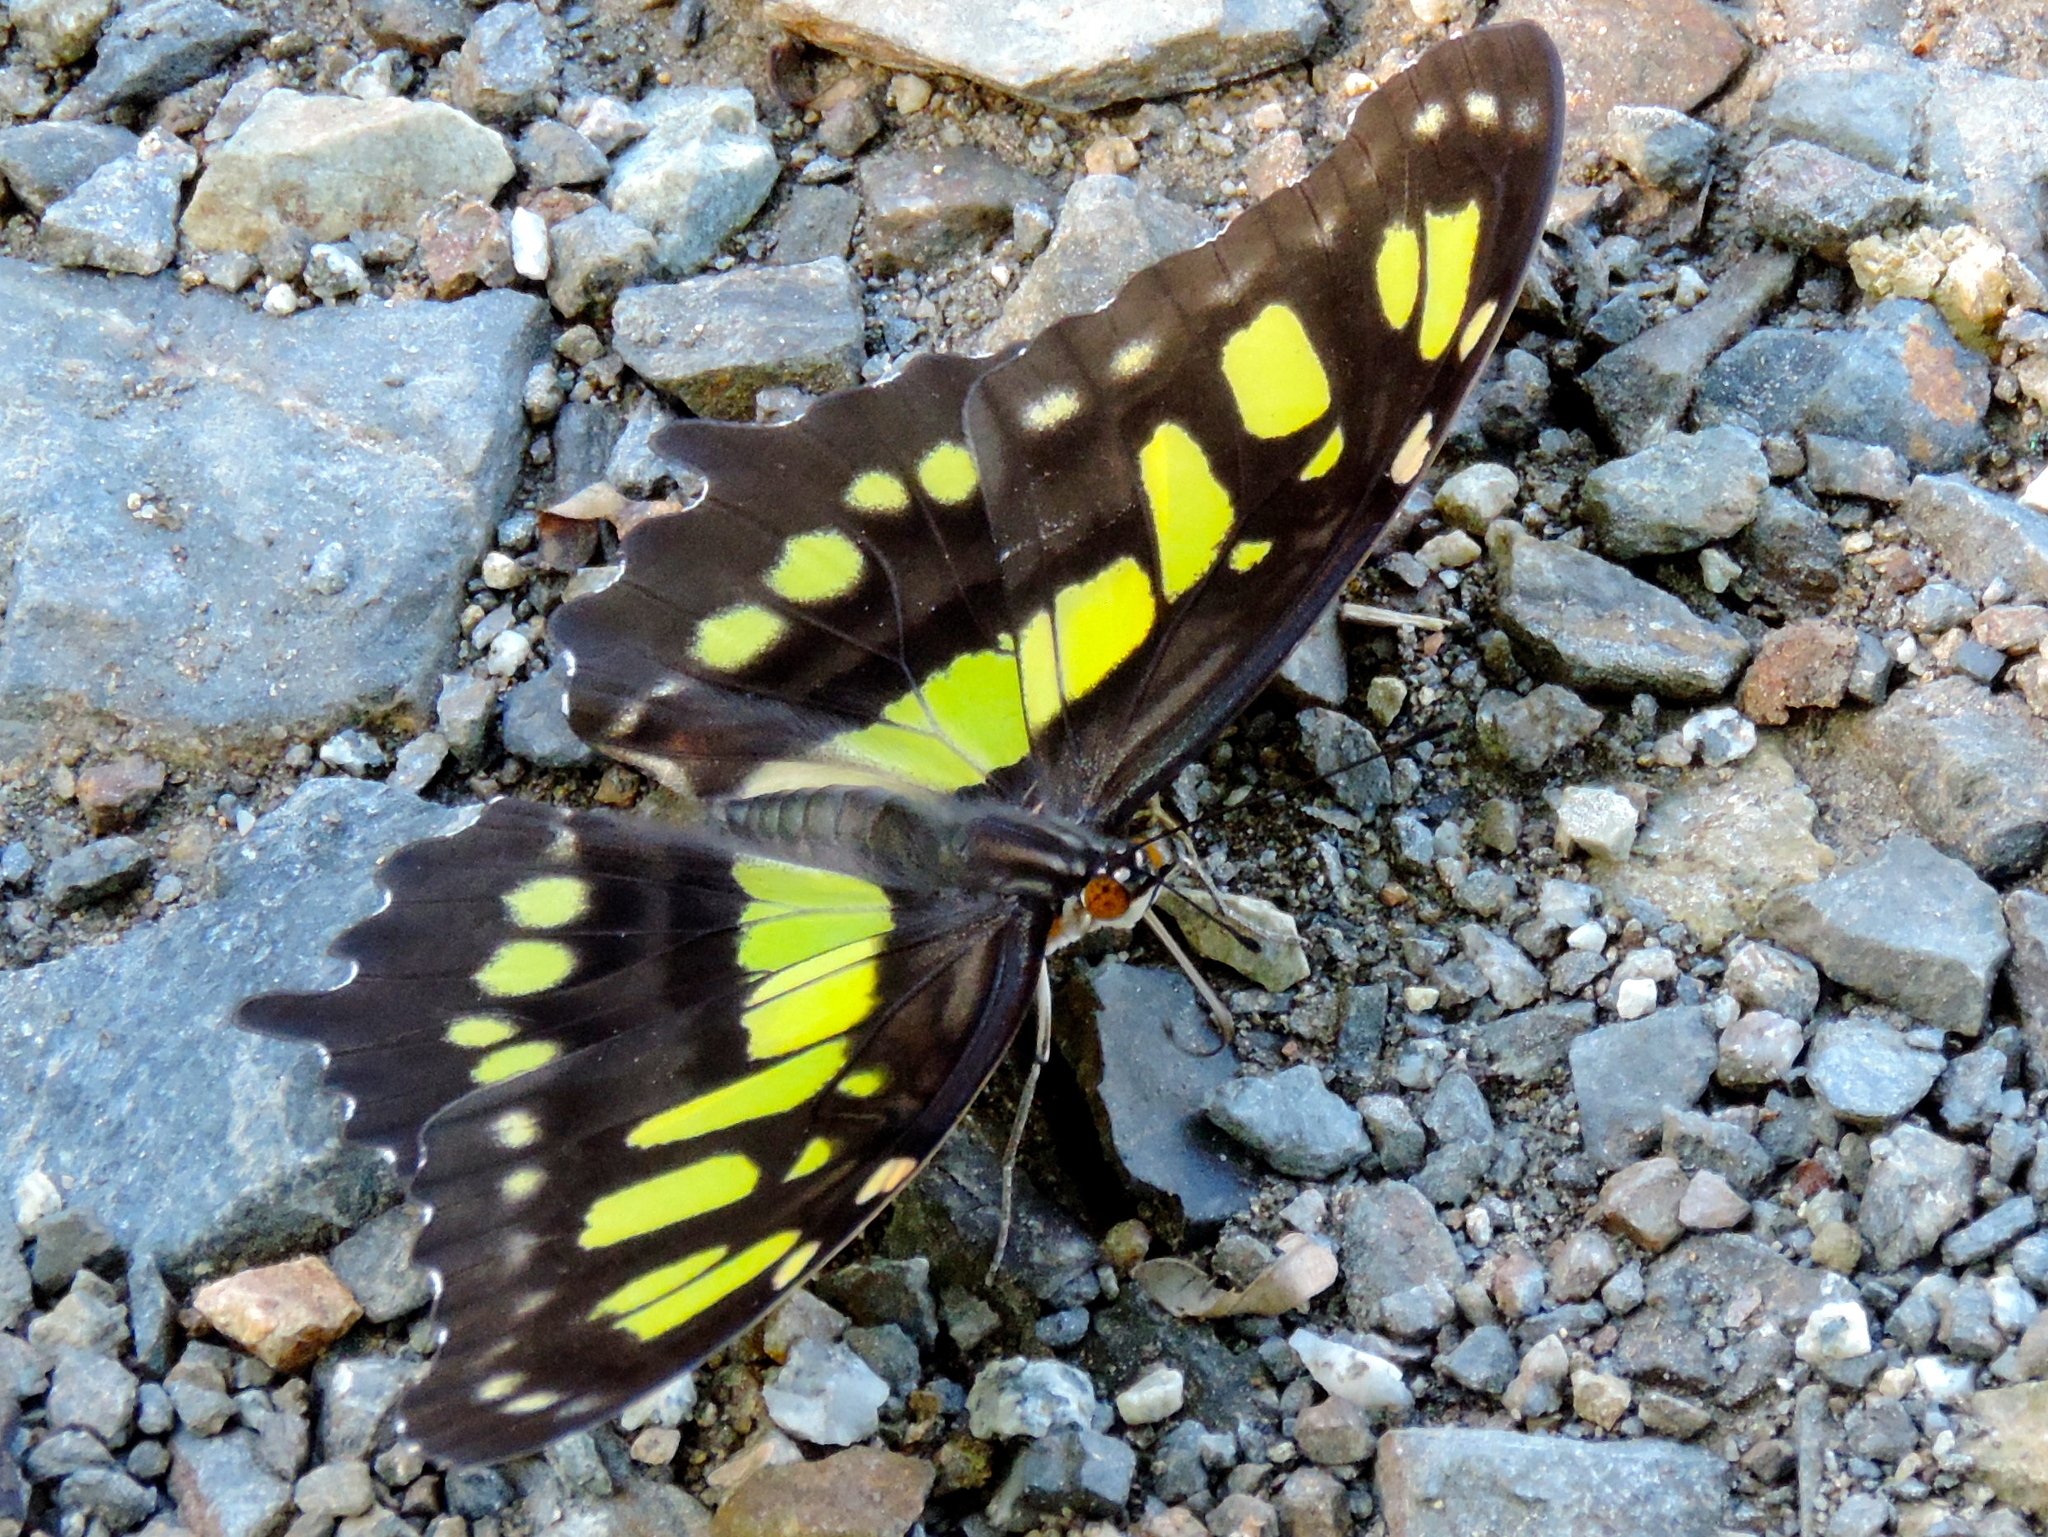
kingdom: Animalia
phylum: Arthropoda
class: Insecta
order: Lepidoptera
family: Nymphalidae
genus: Siproeta
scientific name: Siproeta stelenes
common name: Malachite
